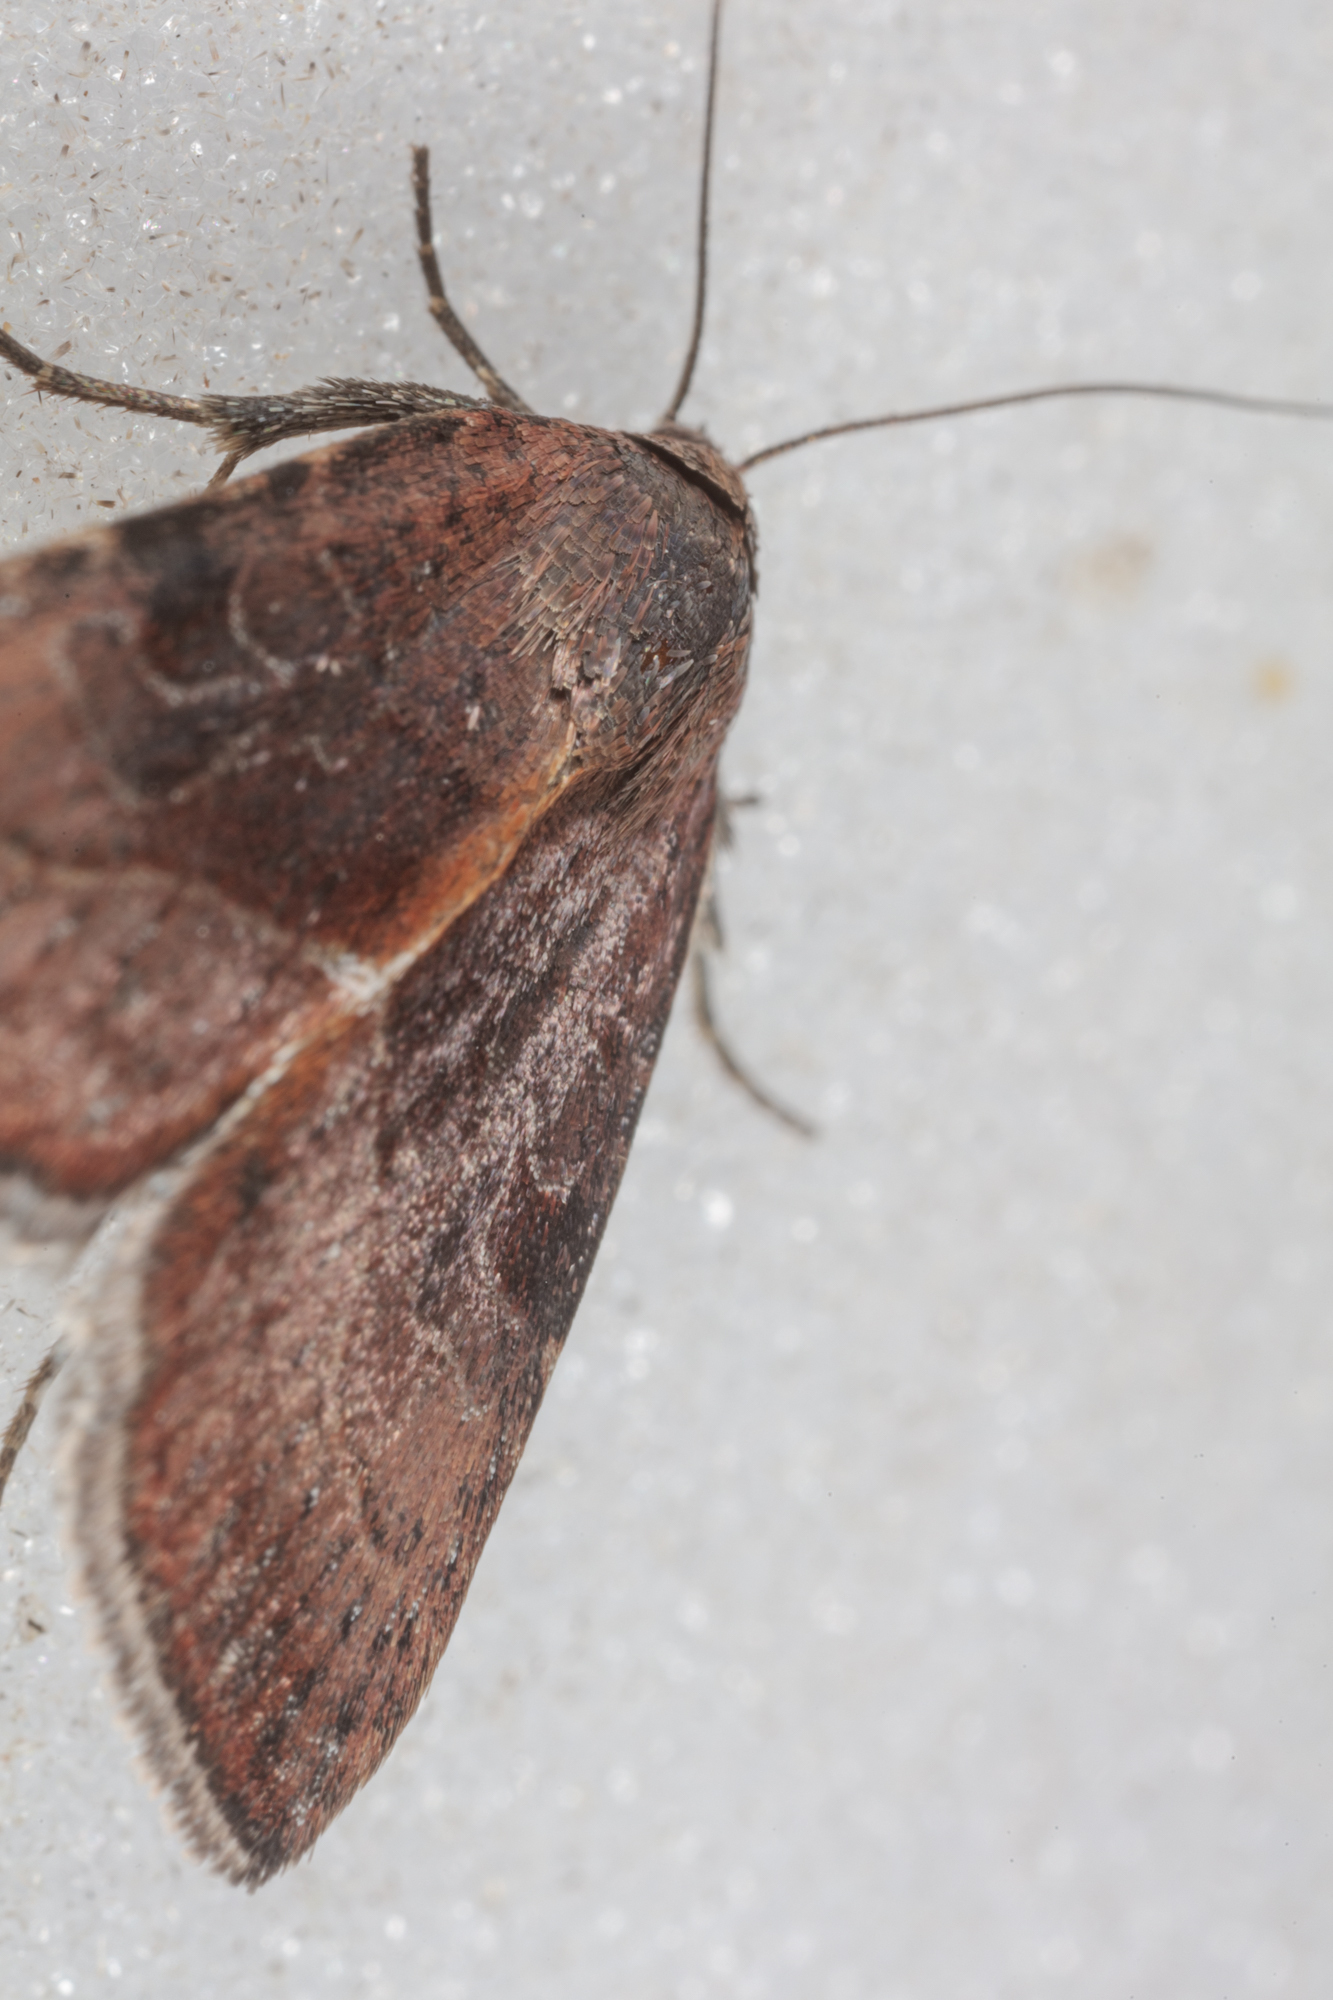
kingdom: Animalia
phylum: Arthropoda
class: Insecta
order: Lepidoptera
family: Noctuidae
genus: Galgula
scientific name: Galgula partita
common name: Wedgeling
